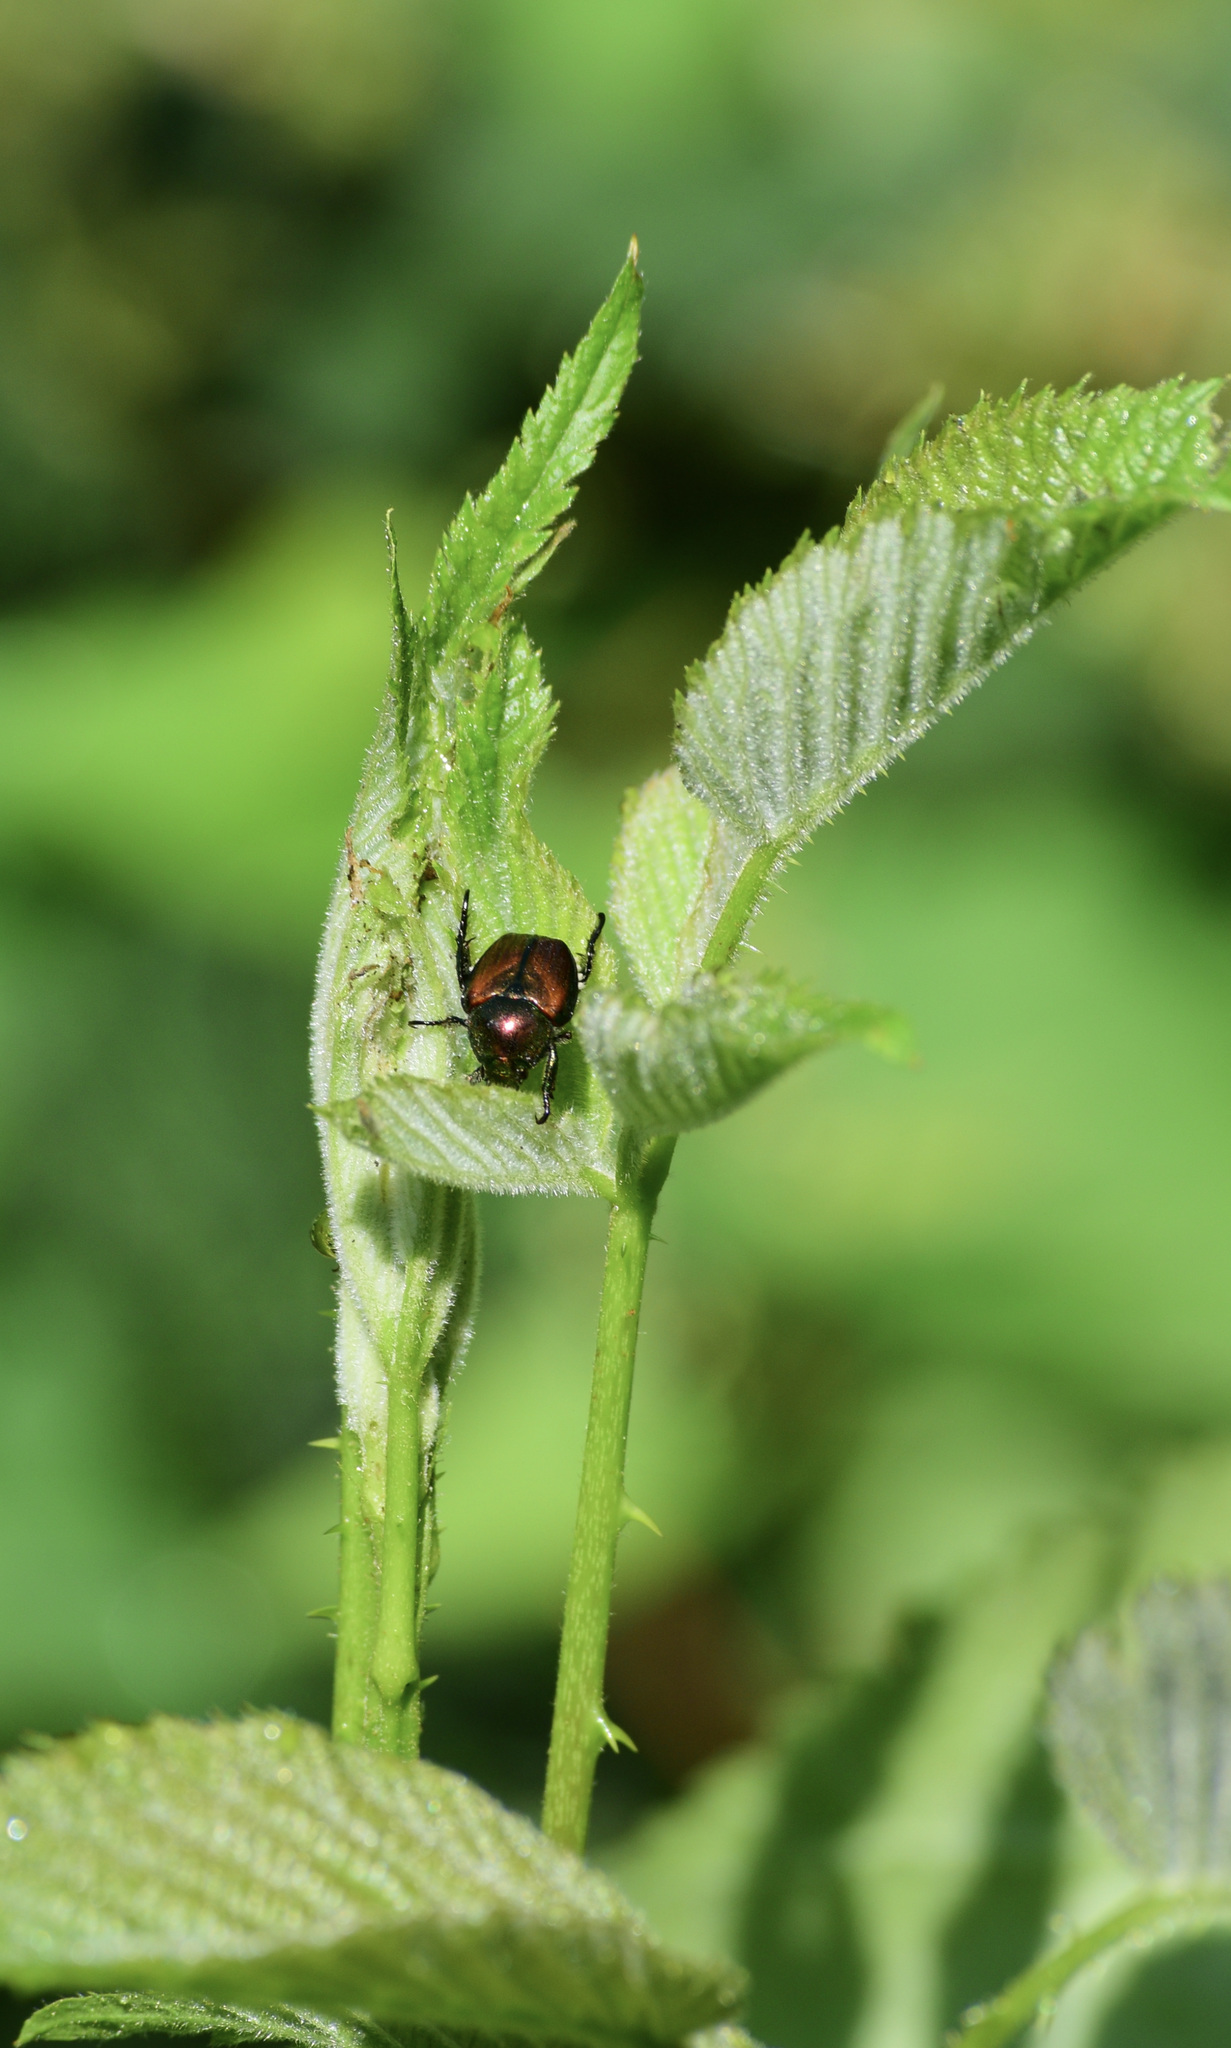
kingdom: Animalia
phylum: Arthropoda
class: Insecta
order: Coleoptera
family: Scarabaeidae
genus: Popillia
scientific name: Popillia japonica
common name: Japanese beetle
